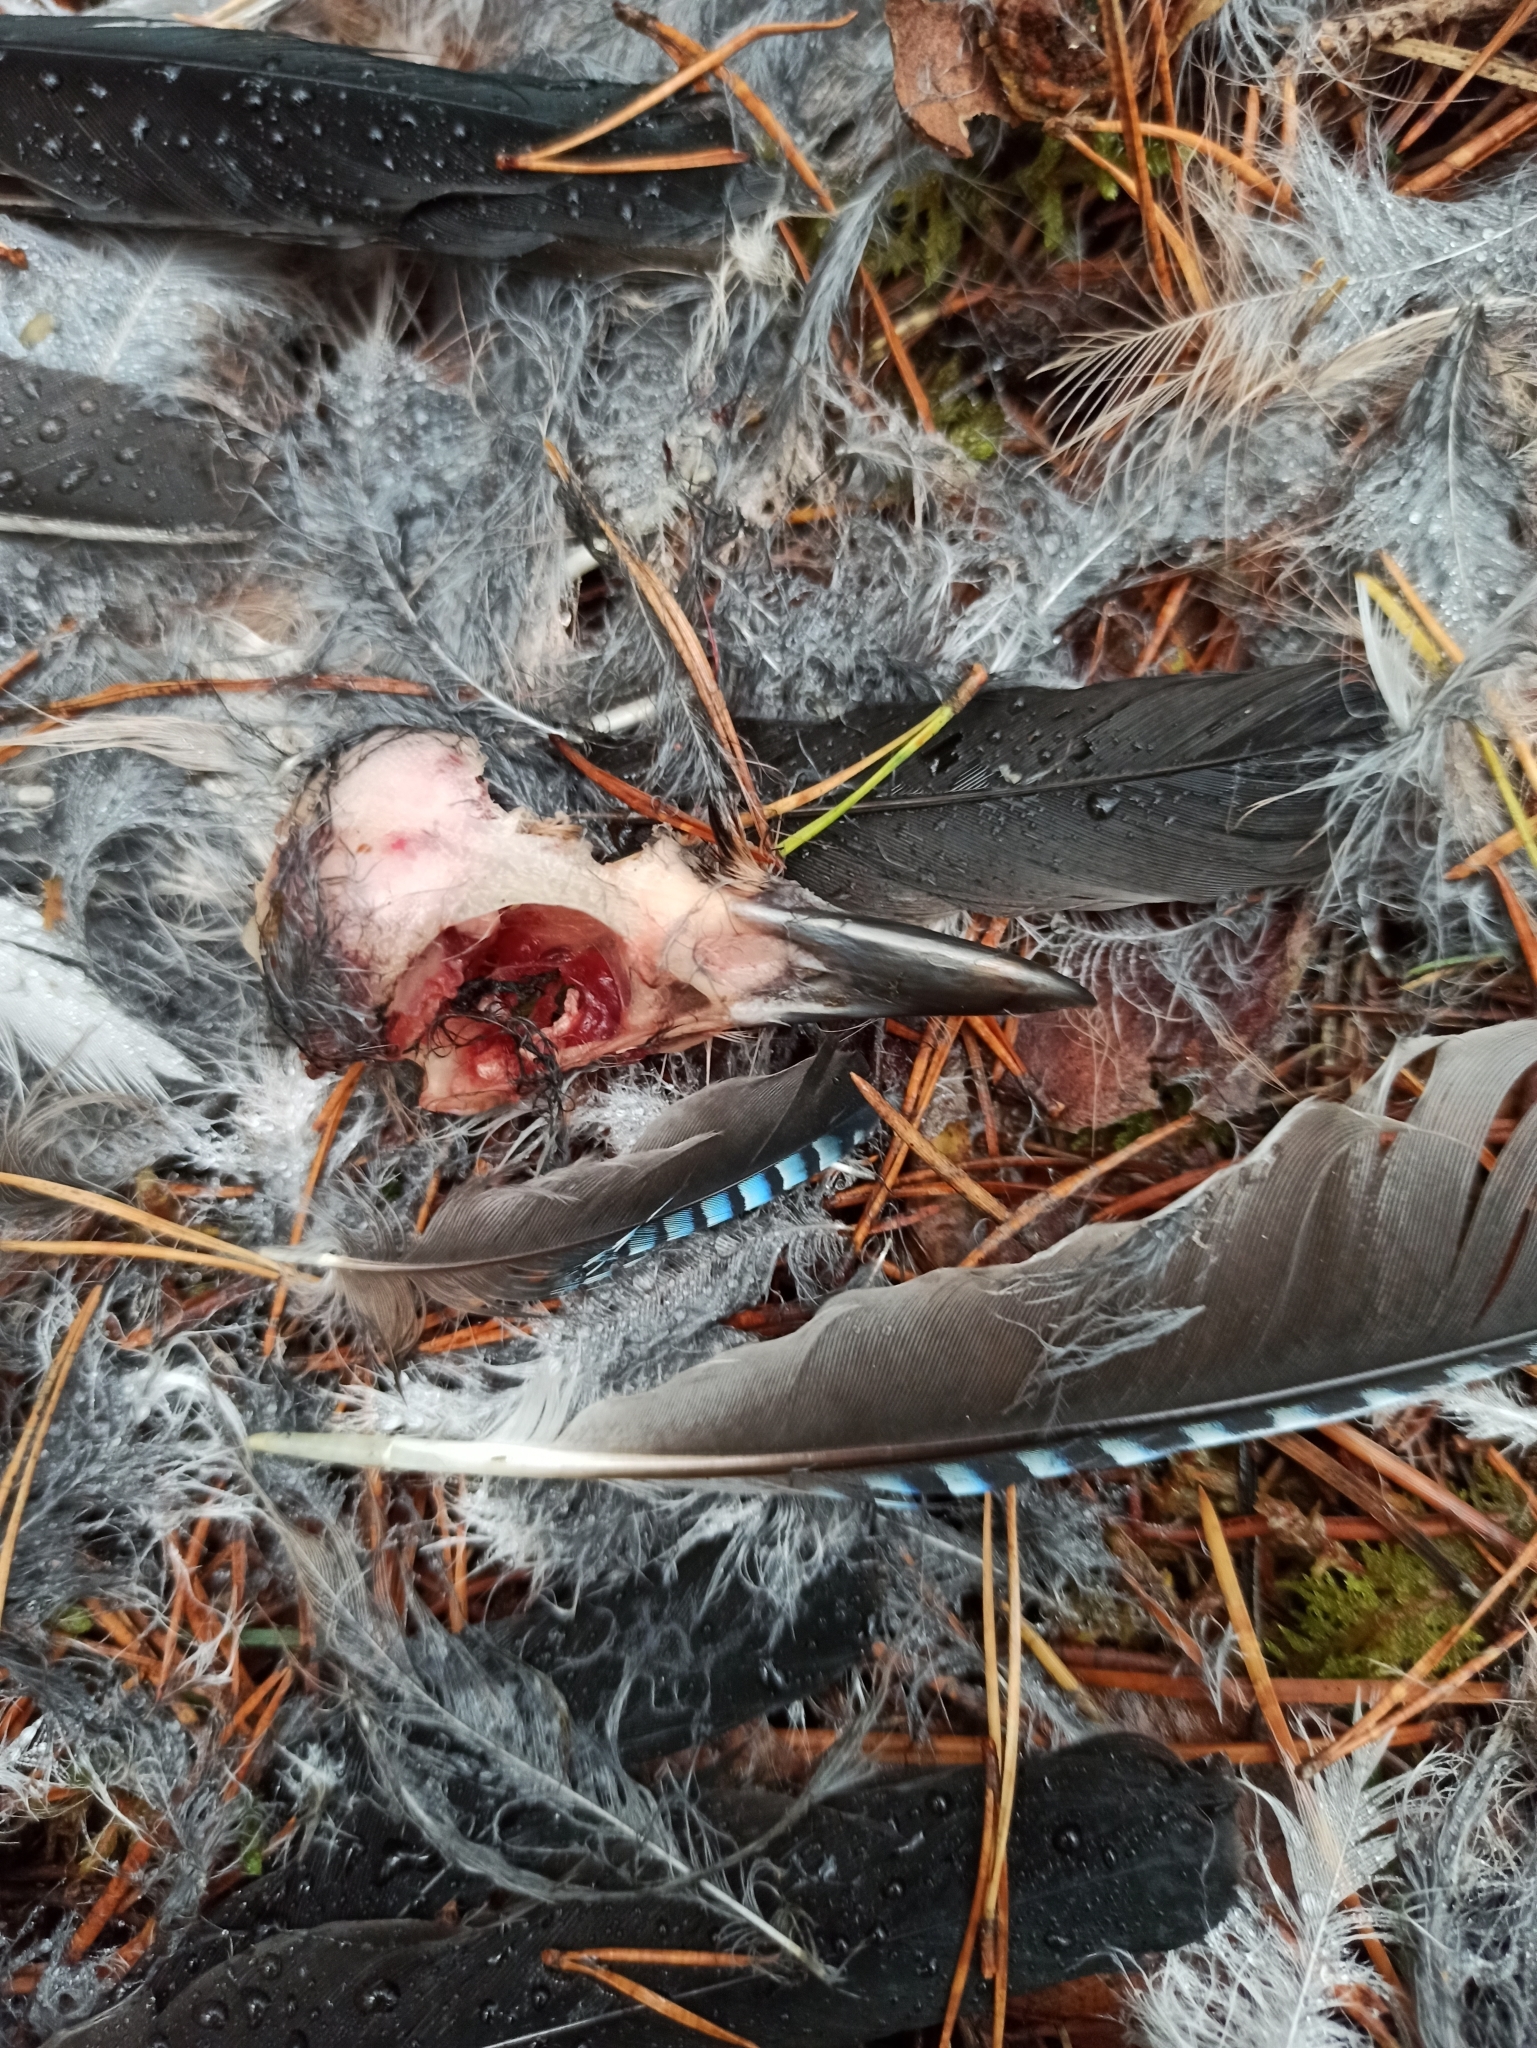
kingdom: Animalia
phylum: Chordata
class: Aves
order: Passeriformes
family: Corvidae
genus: Garrulus
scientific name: Garrulus glandarius
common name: Eurasian jay
